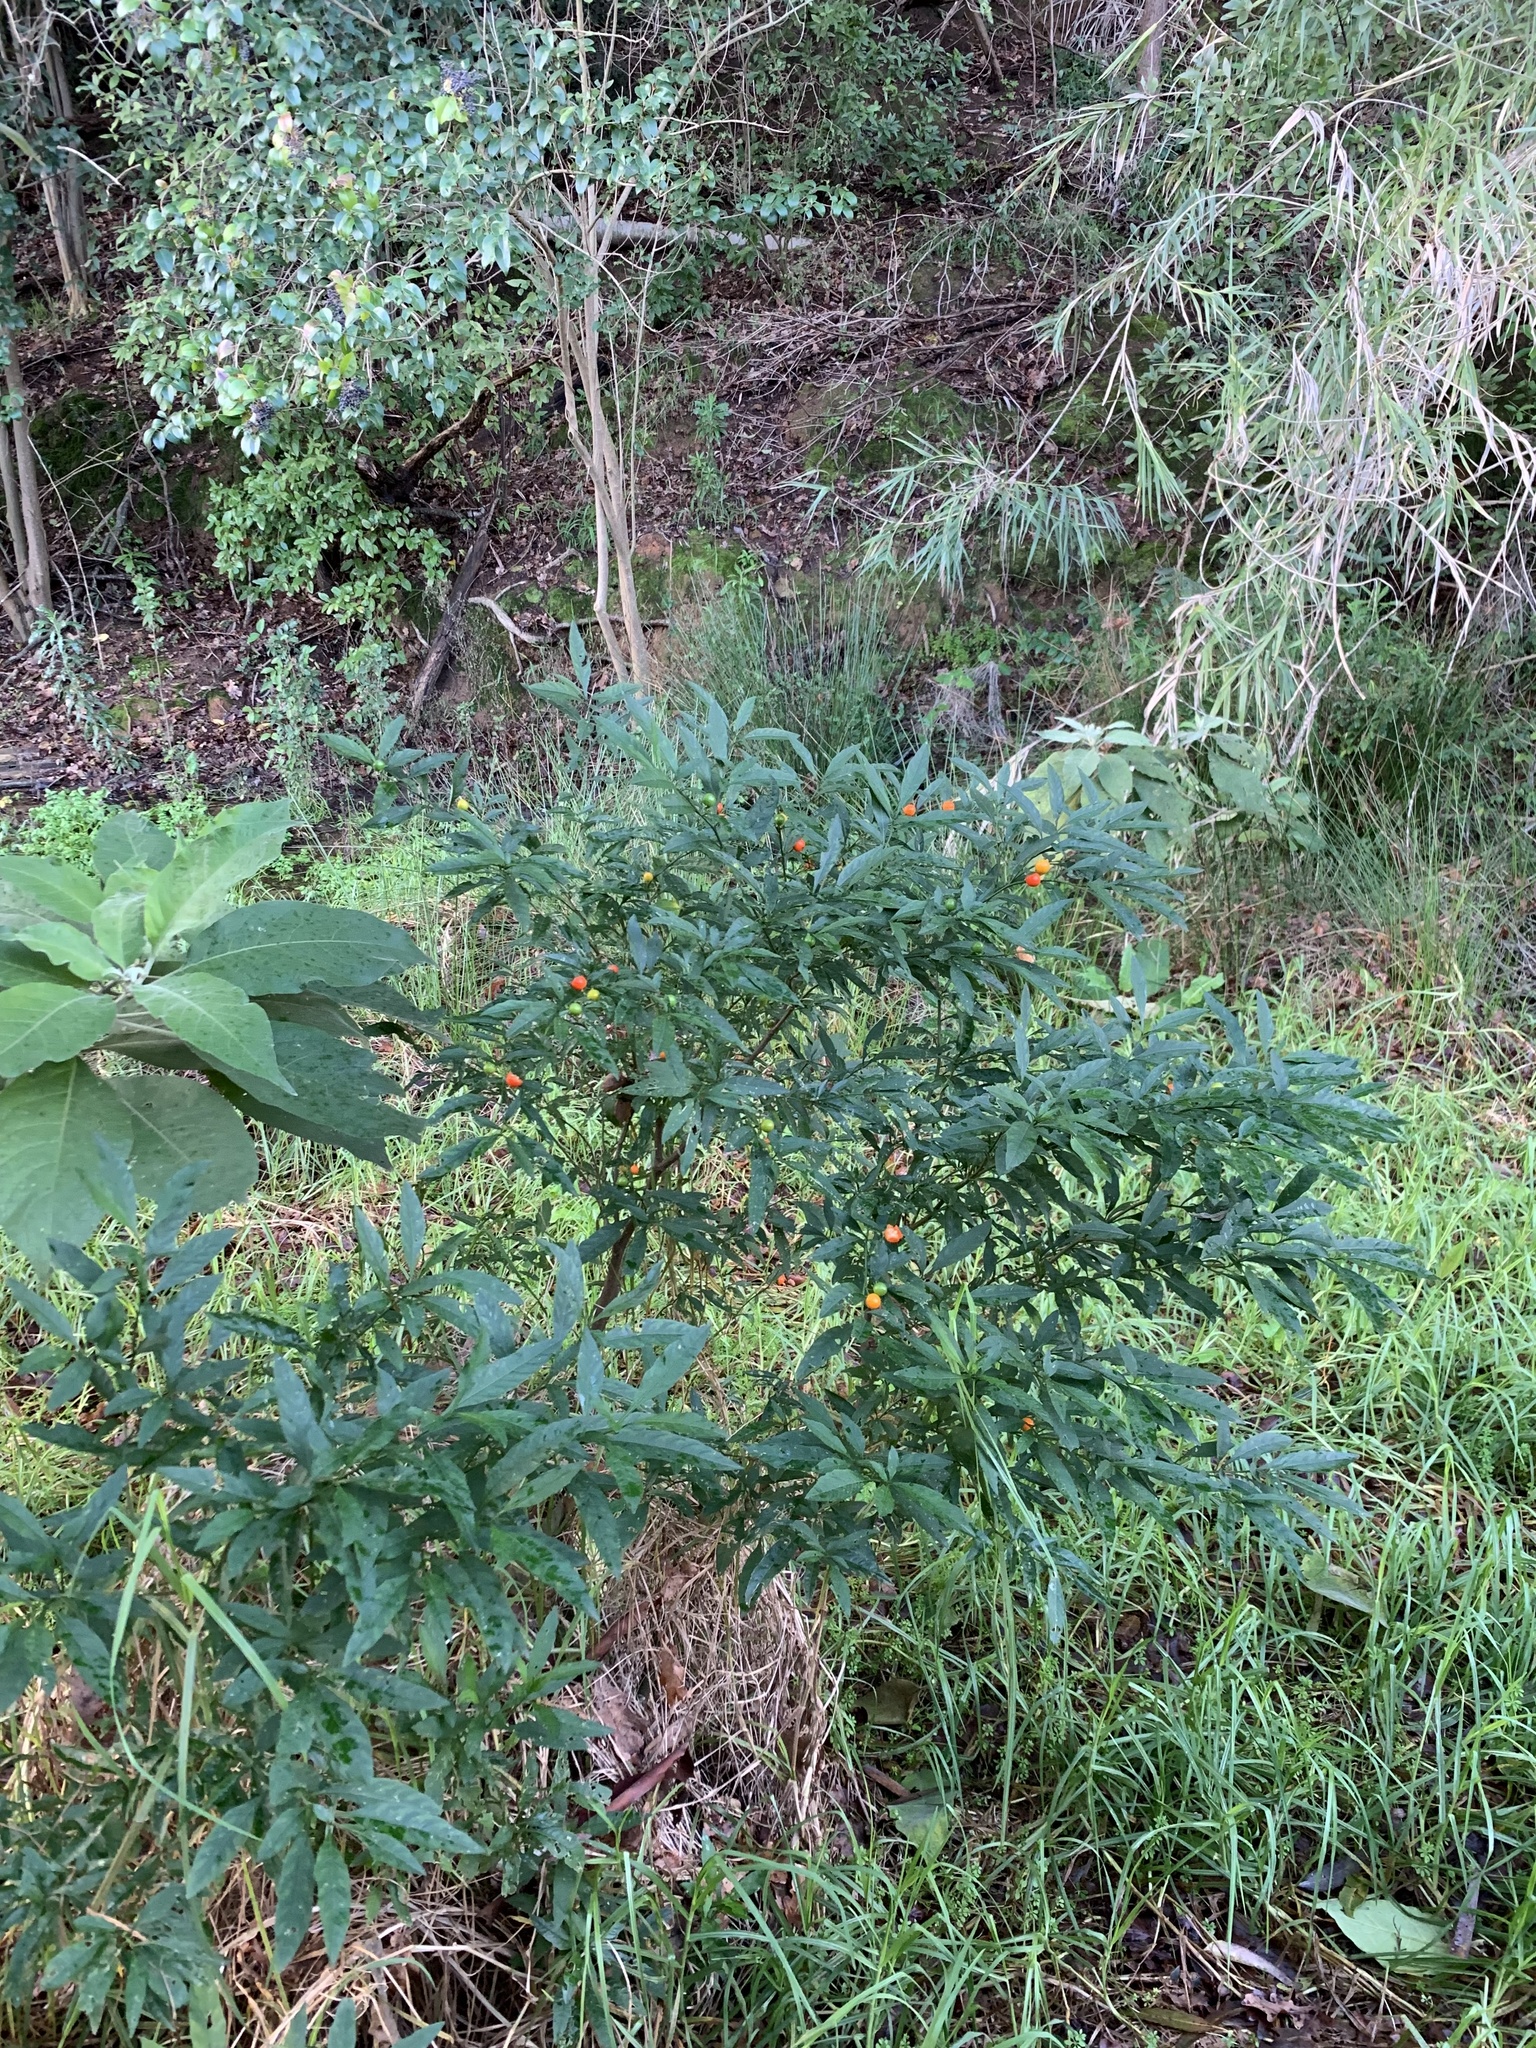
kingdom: Plantae
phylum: Tracheophyta
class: Magnoliopsida
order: Solanales
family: Solanaceae
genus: Solanum
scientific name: Solanum pseudocapsicum
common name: Jerusalem cherry
